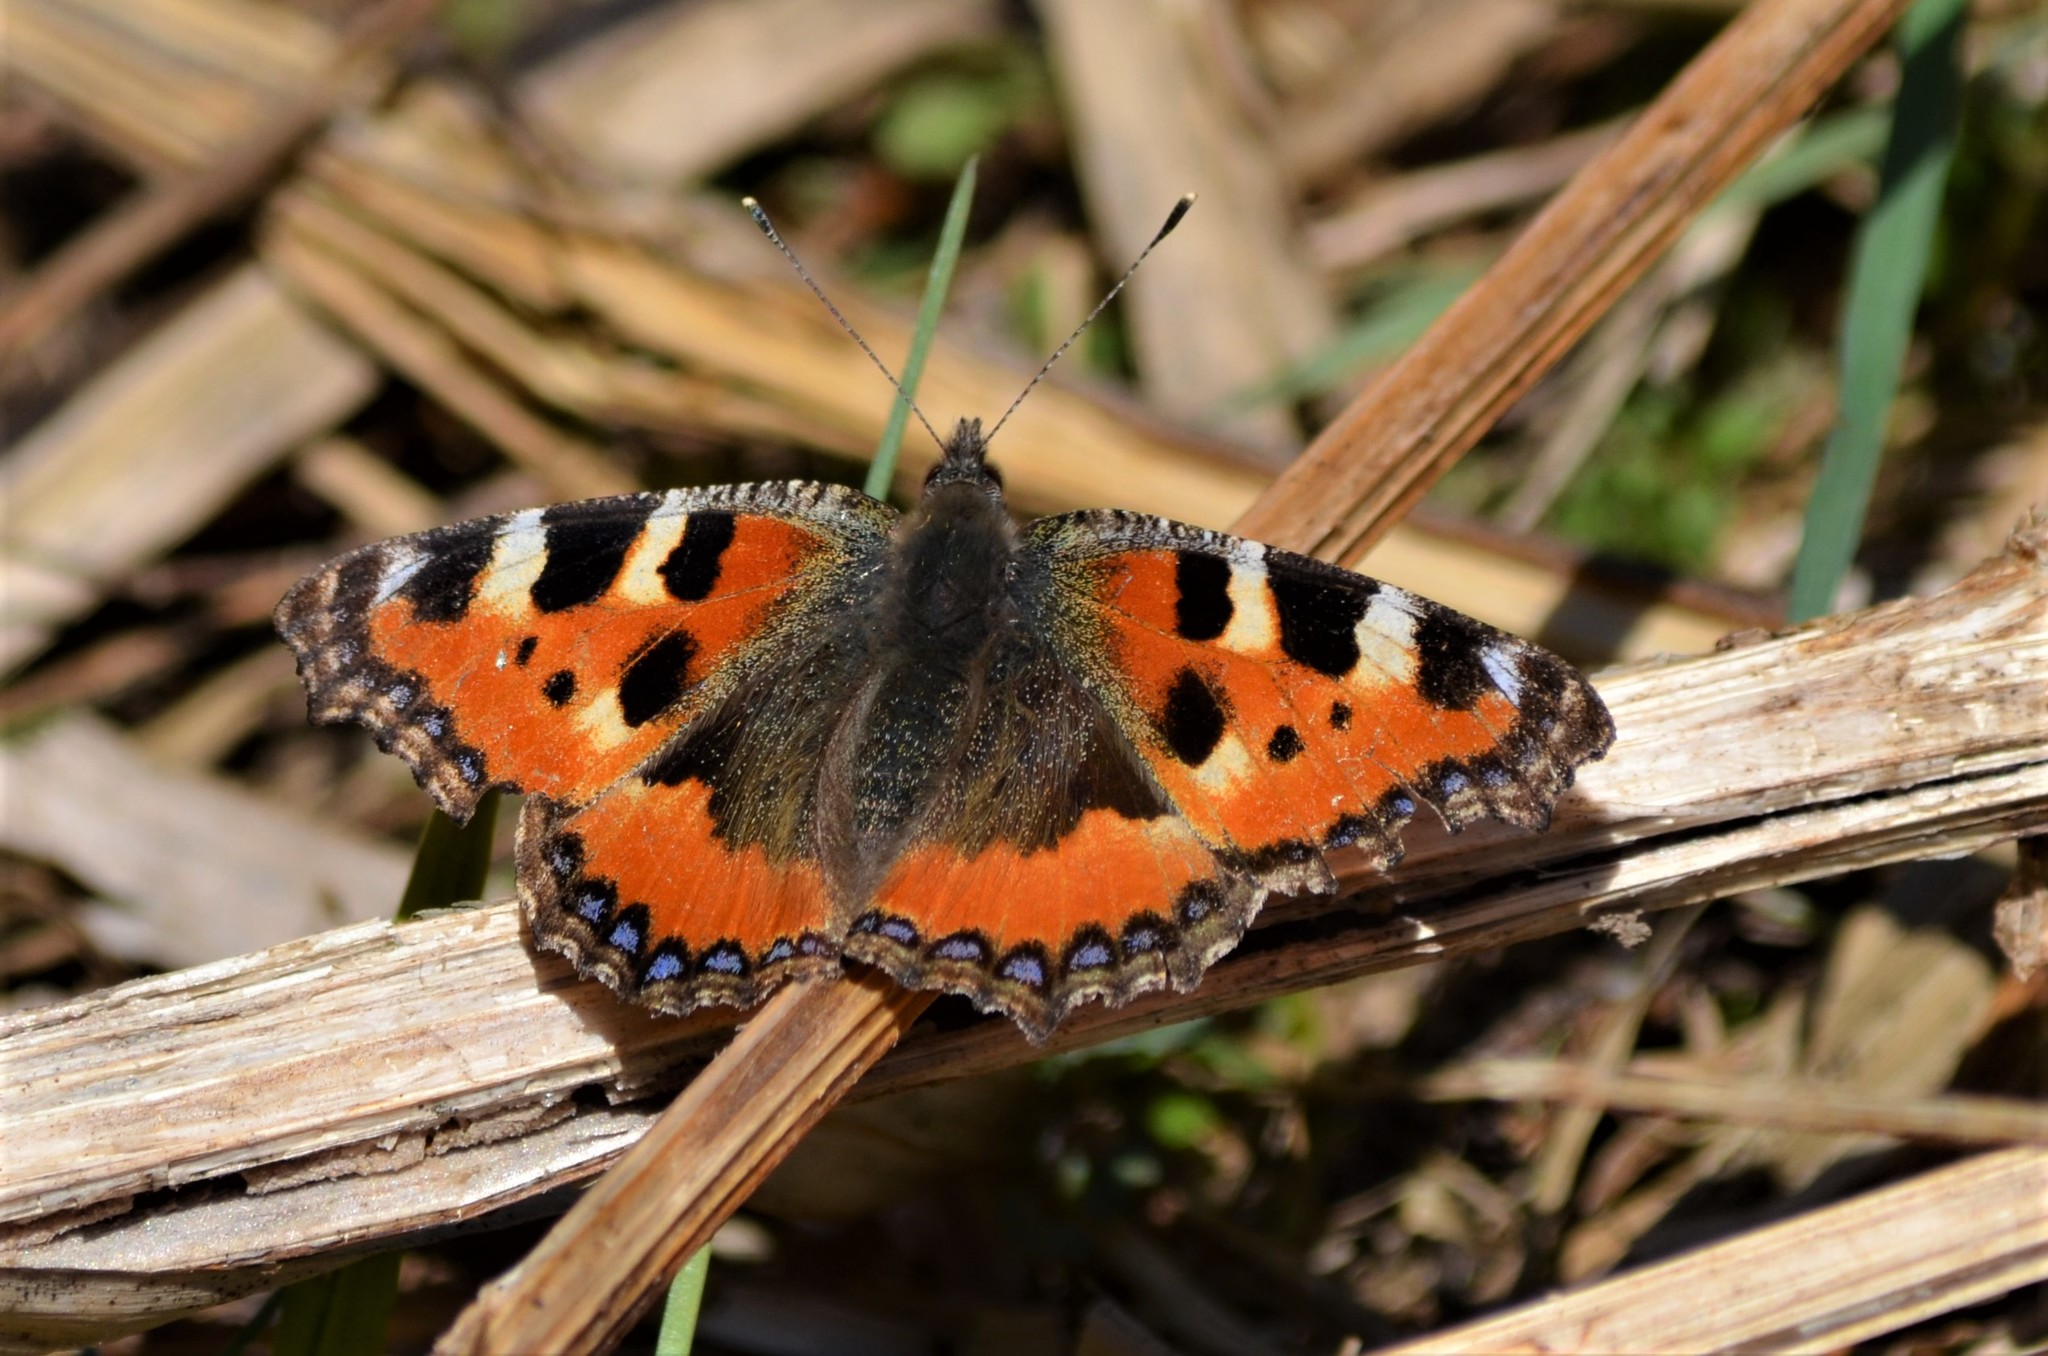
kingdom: Animalia
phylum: Arthropoda
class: Insecta
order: Lepidoptera
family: Nymphalidae
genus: Aglais
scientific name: Aglais urticae
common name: Small tortoiseshell
